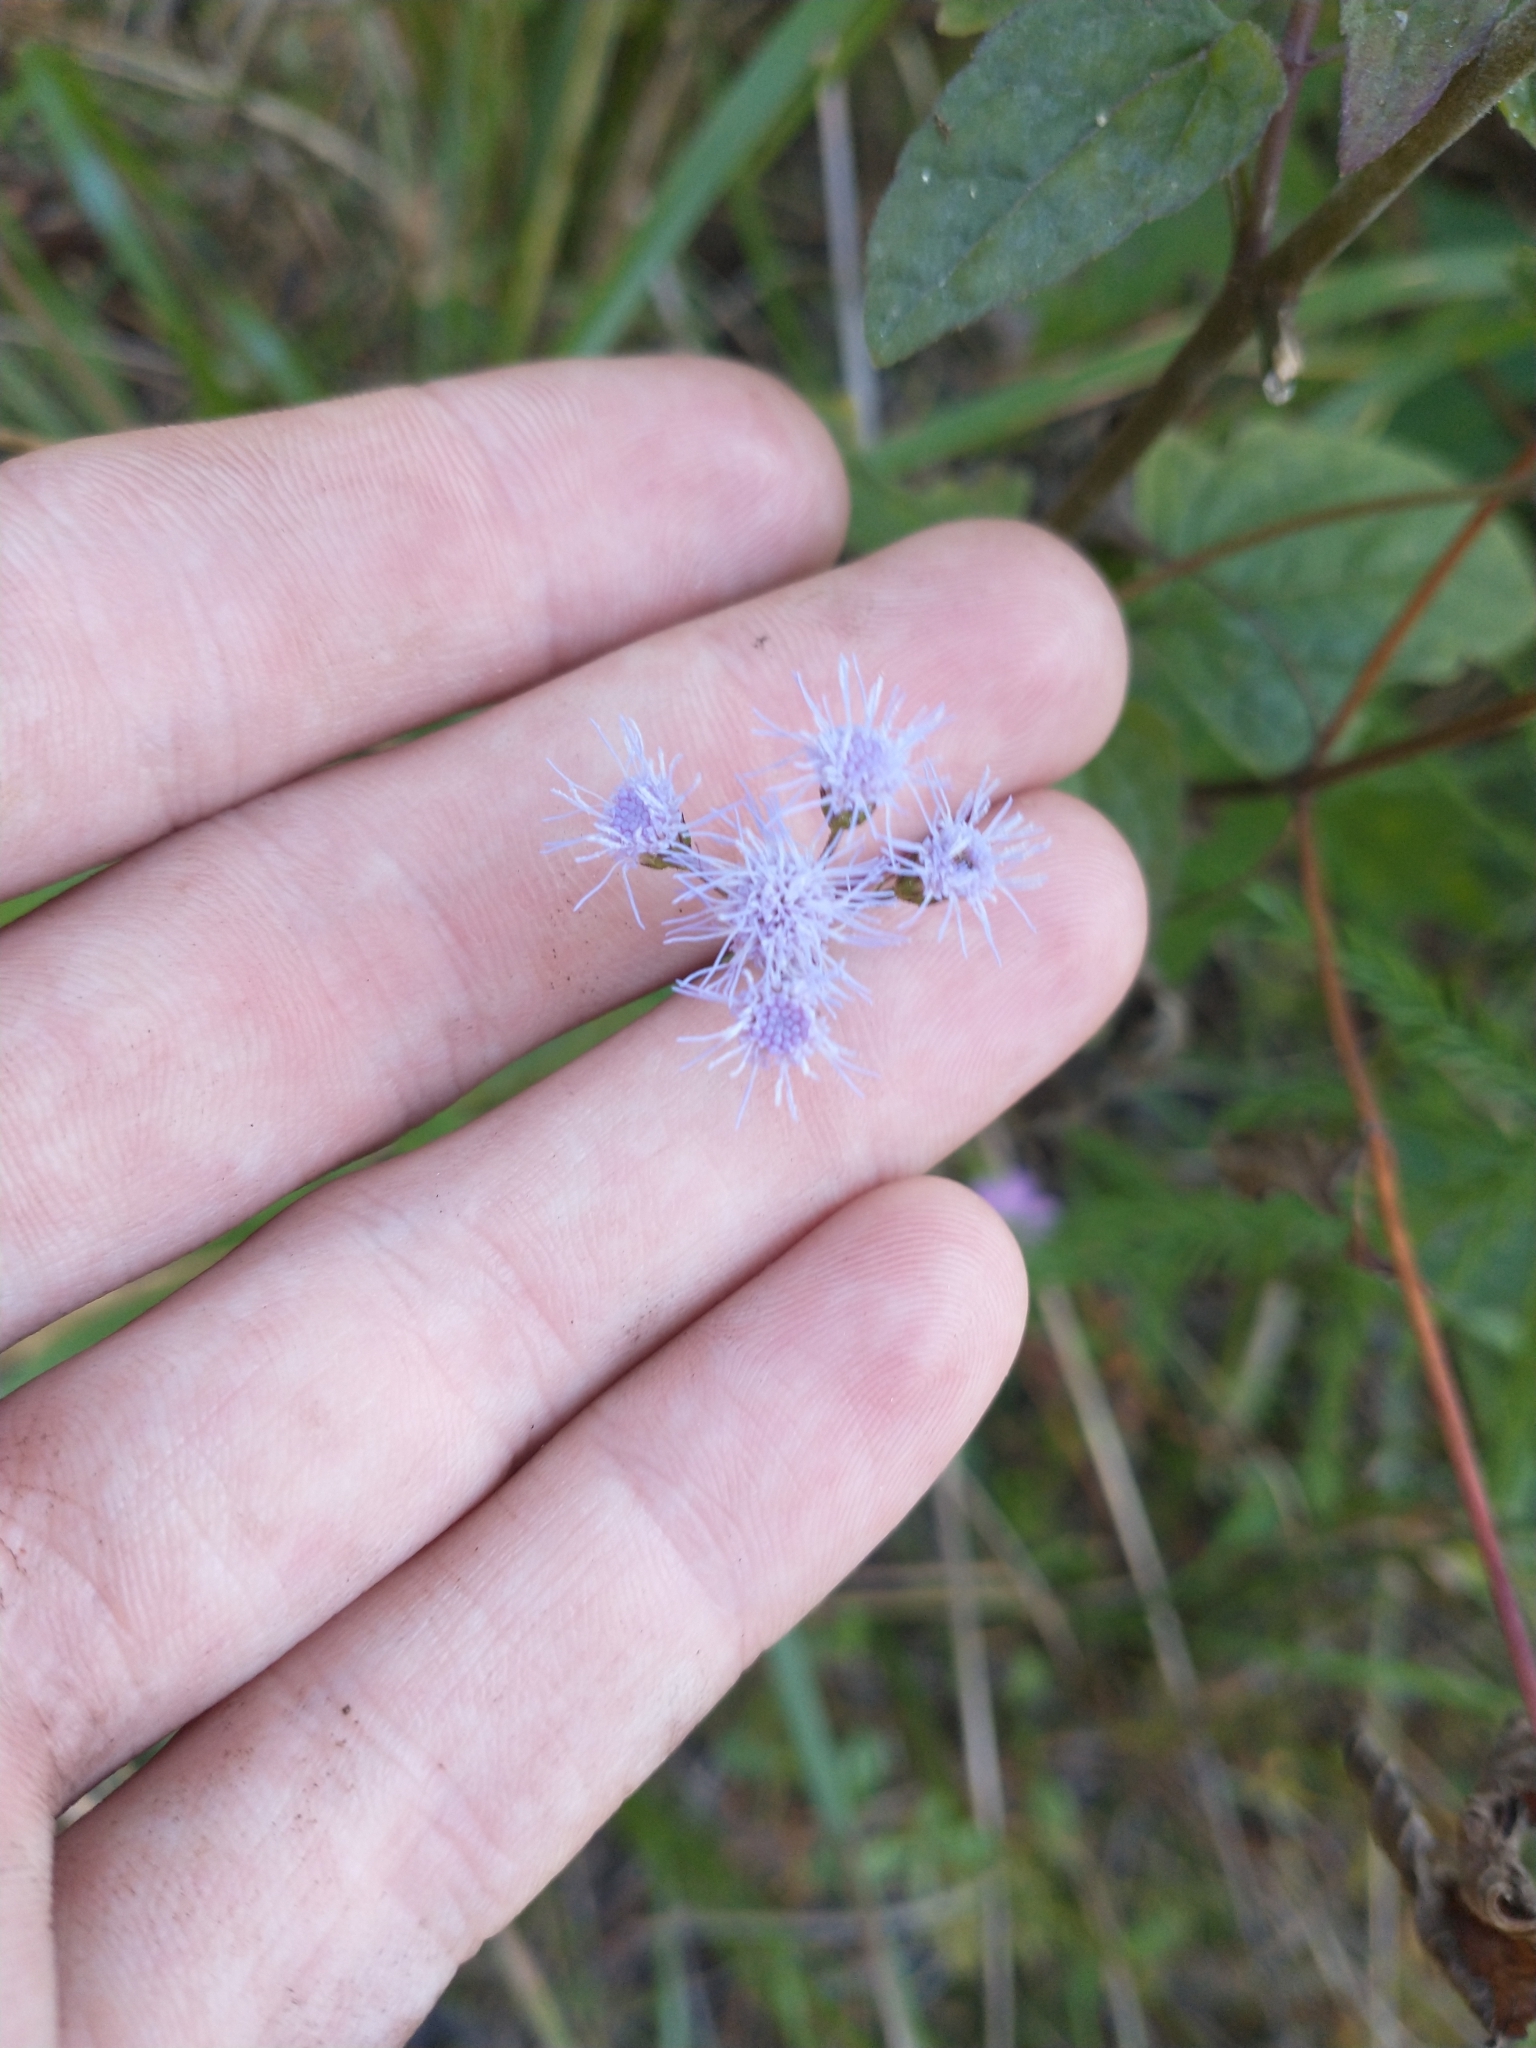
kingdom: Plantae
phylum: Tracheophyta
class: Magnoliopsida
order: Asterales
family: Asteraceae
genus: Conoclinium
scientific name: Conoclinium coelestinum
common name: Blue mistflower
